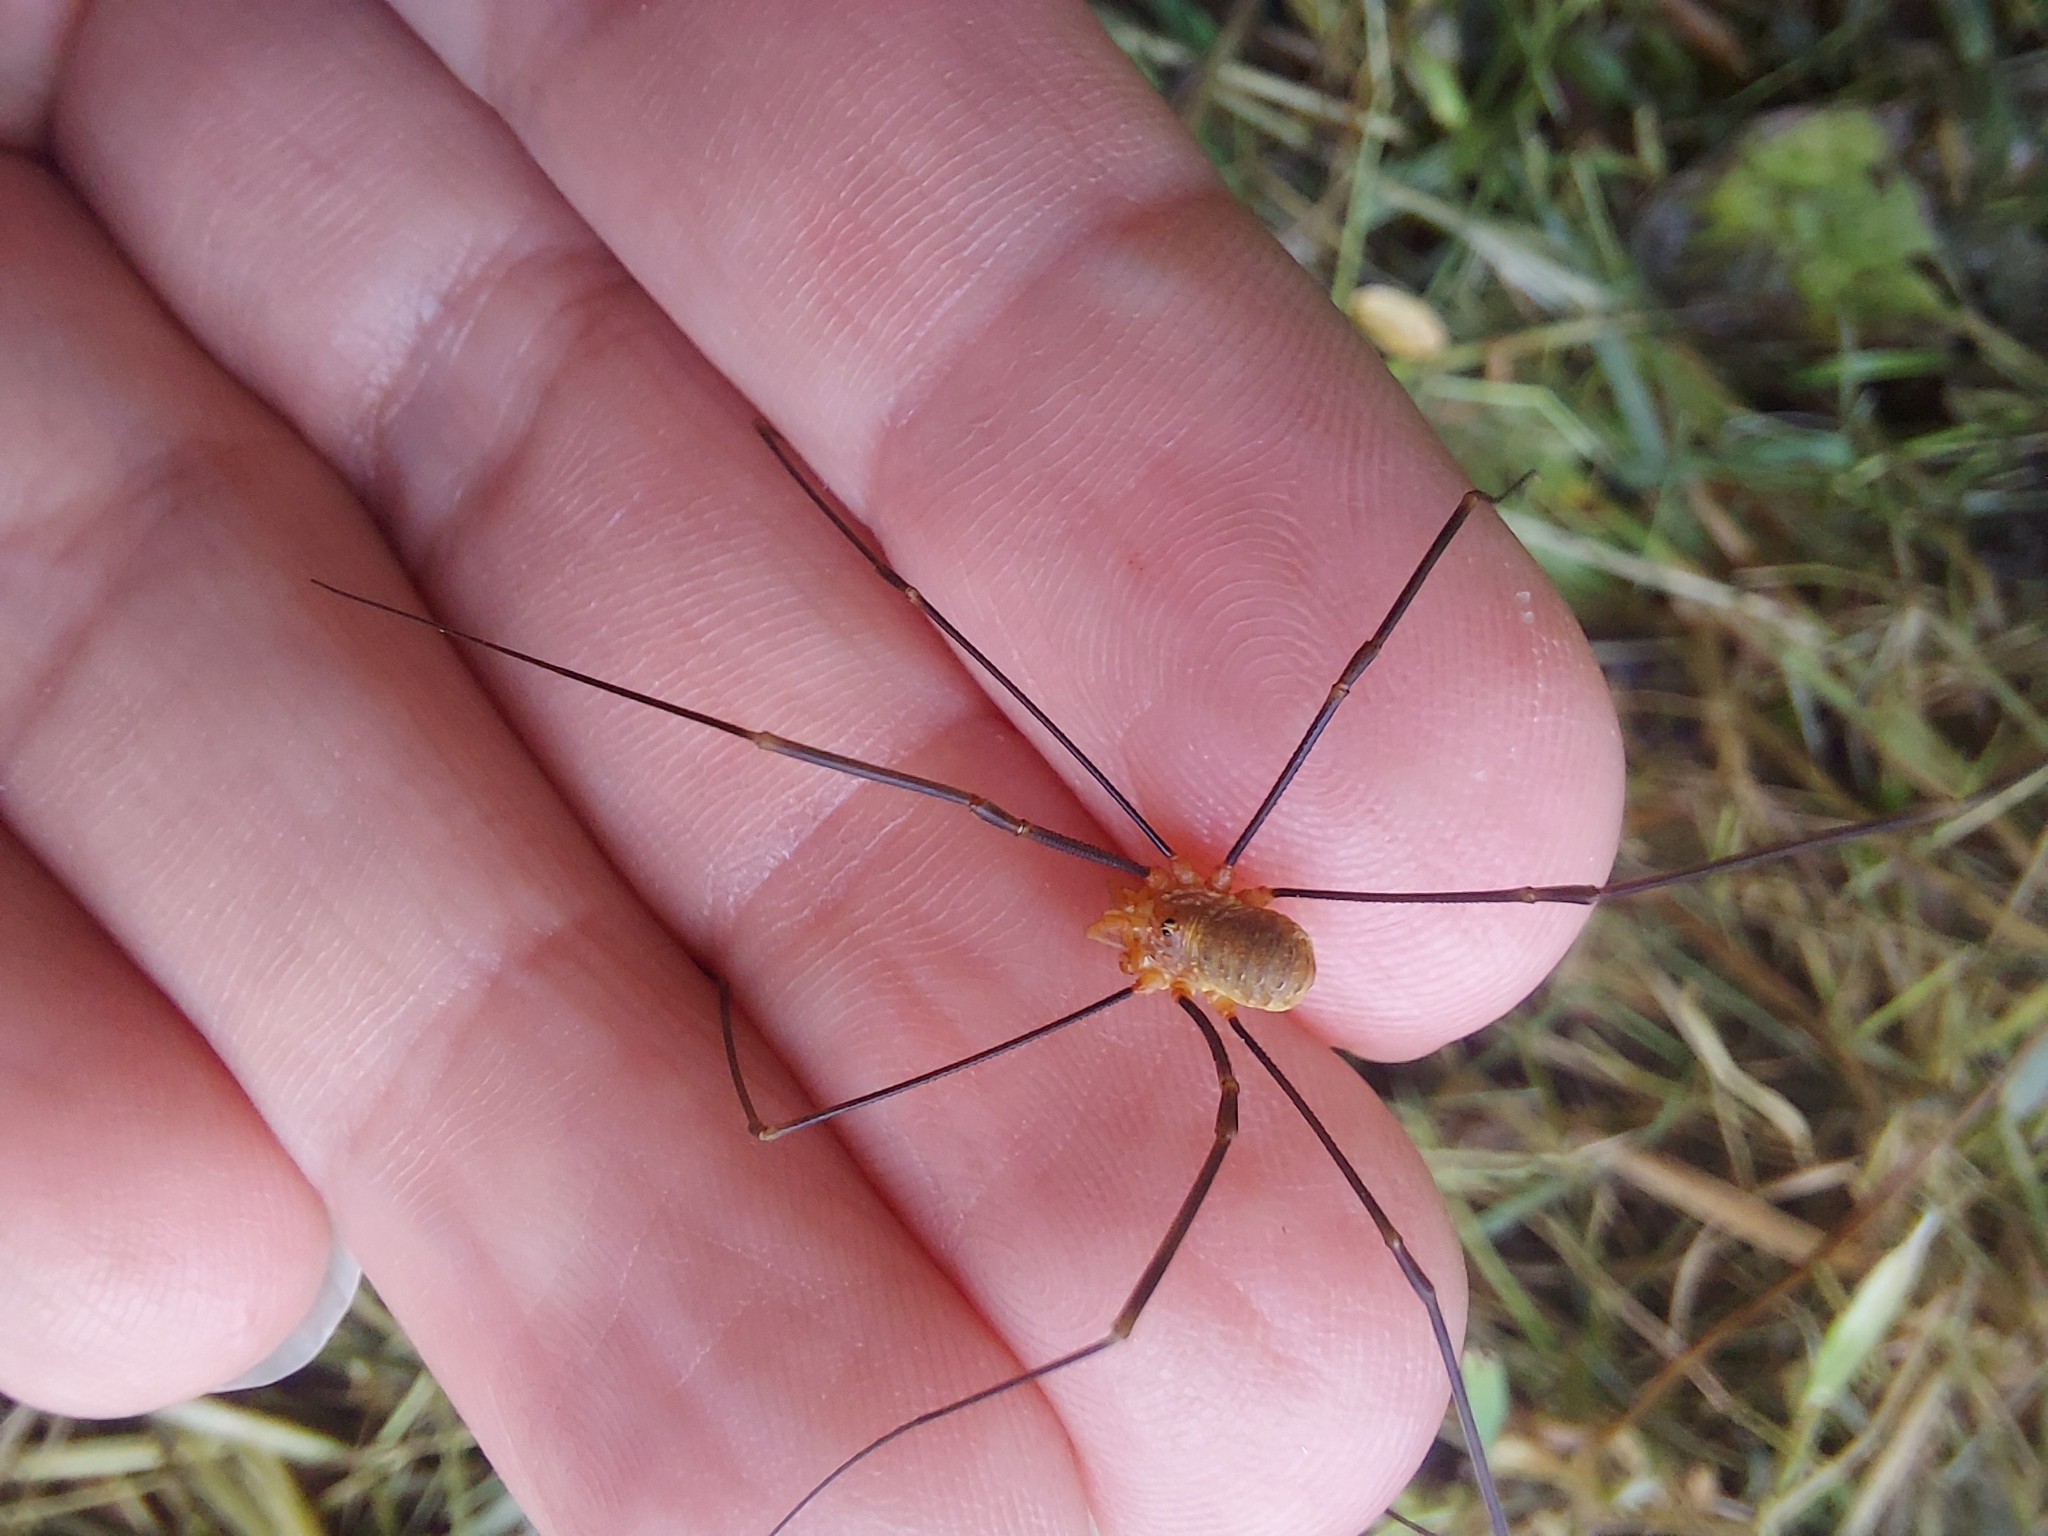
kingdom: Animalia
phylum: Arthropoda
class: Arachnida
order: Opiliones
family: Phalangiidae
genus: Opilio
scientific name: Opilio canestrinii
